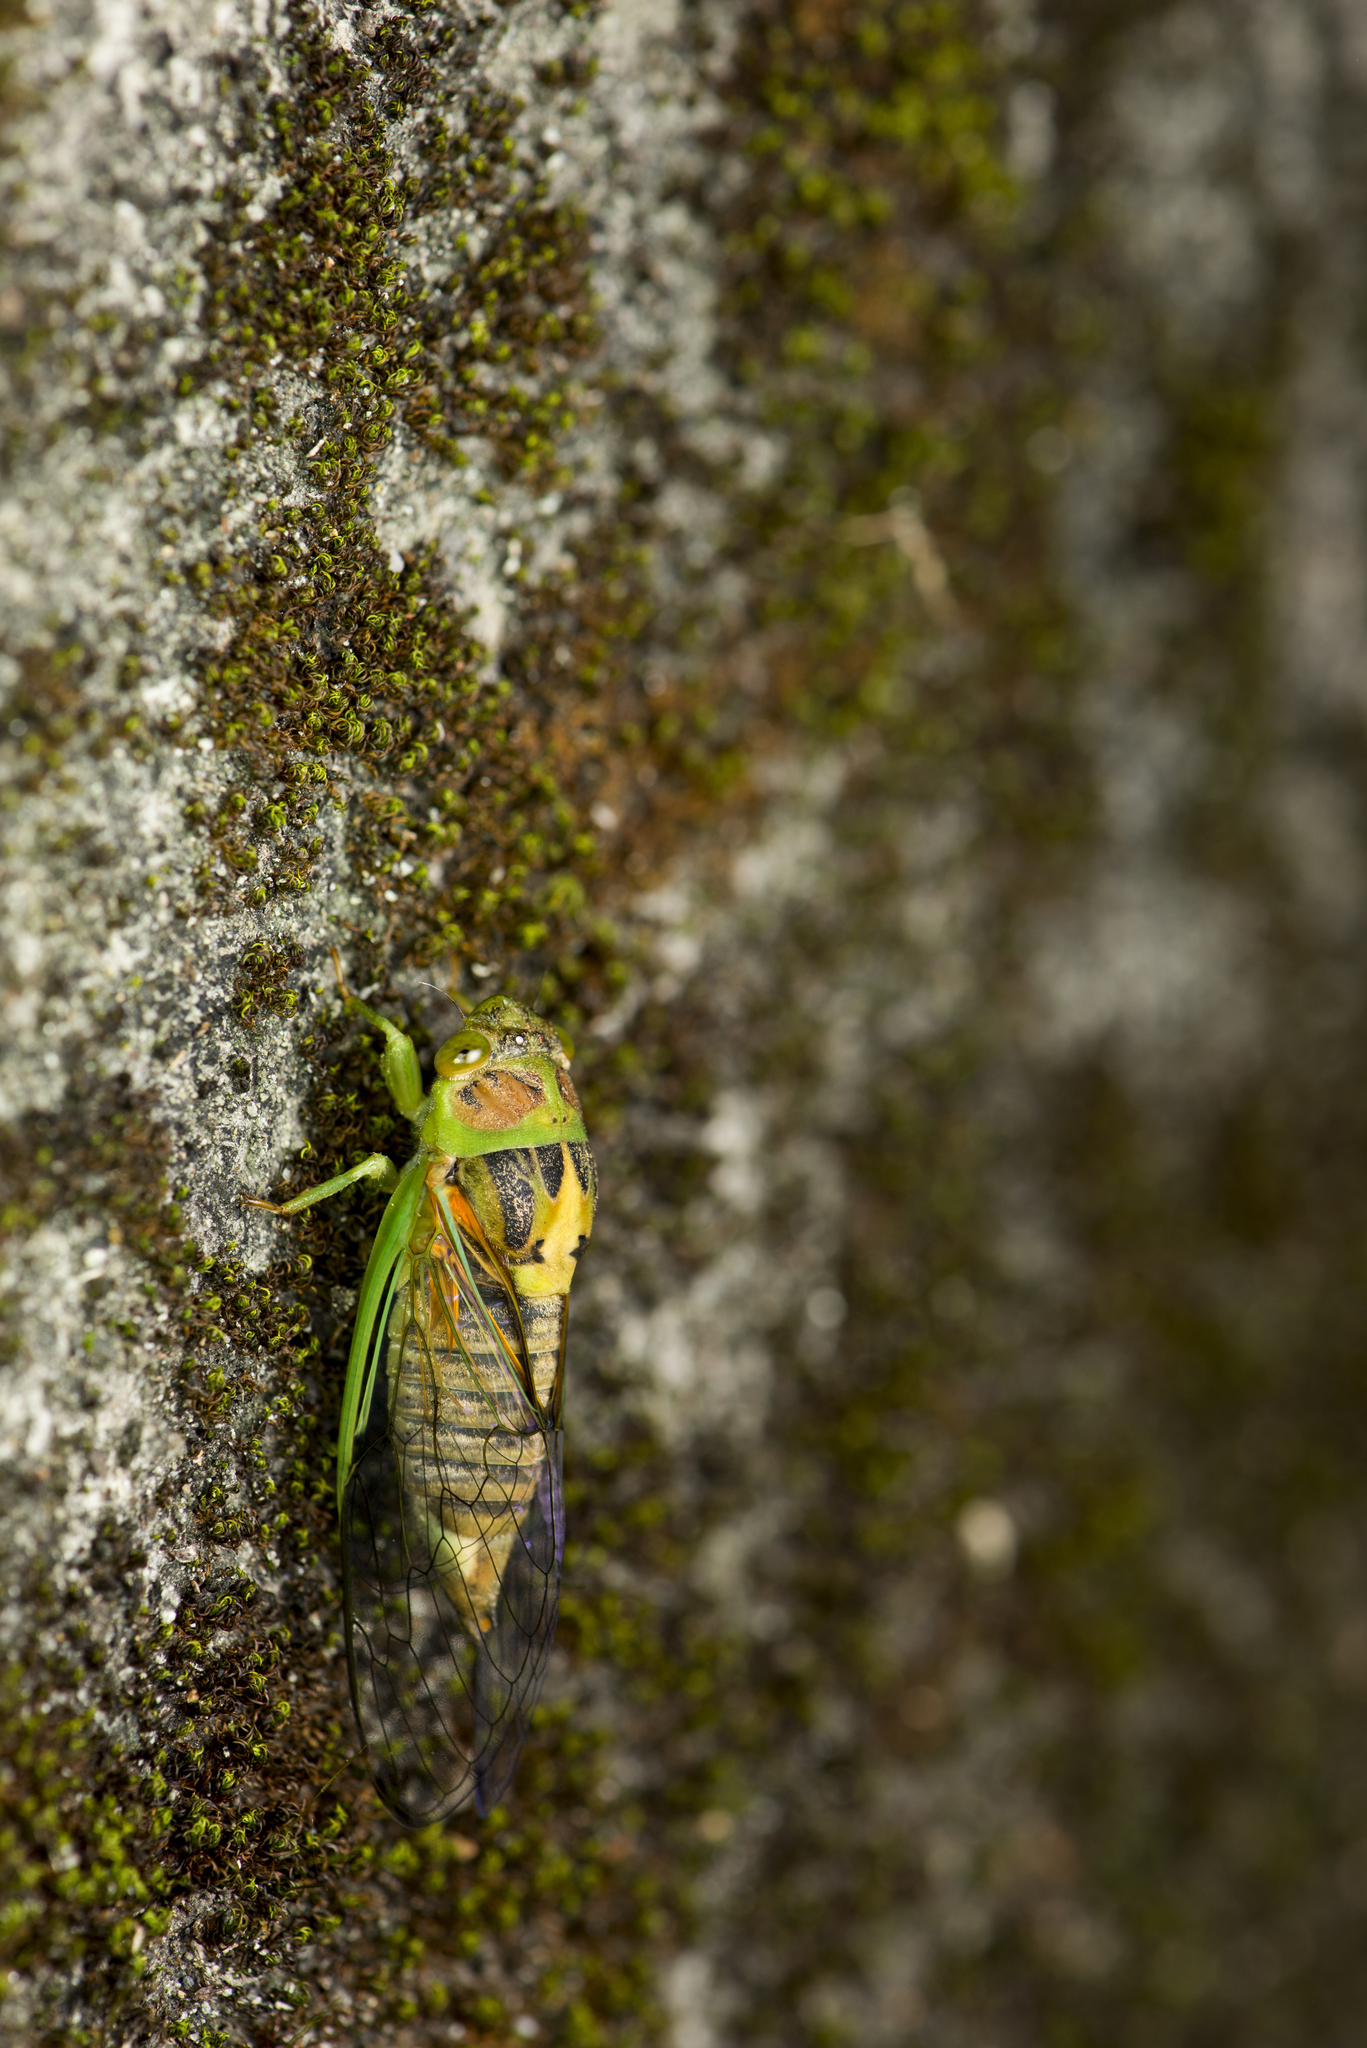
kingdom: Animalia
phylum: Arthropoda
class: Insecta
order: Hemiptera
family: Cicadidae
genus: Vagitanus
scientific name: Vagitanus terminalis
